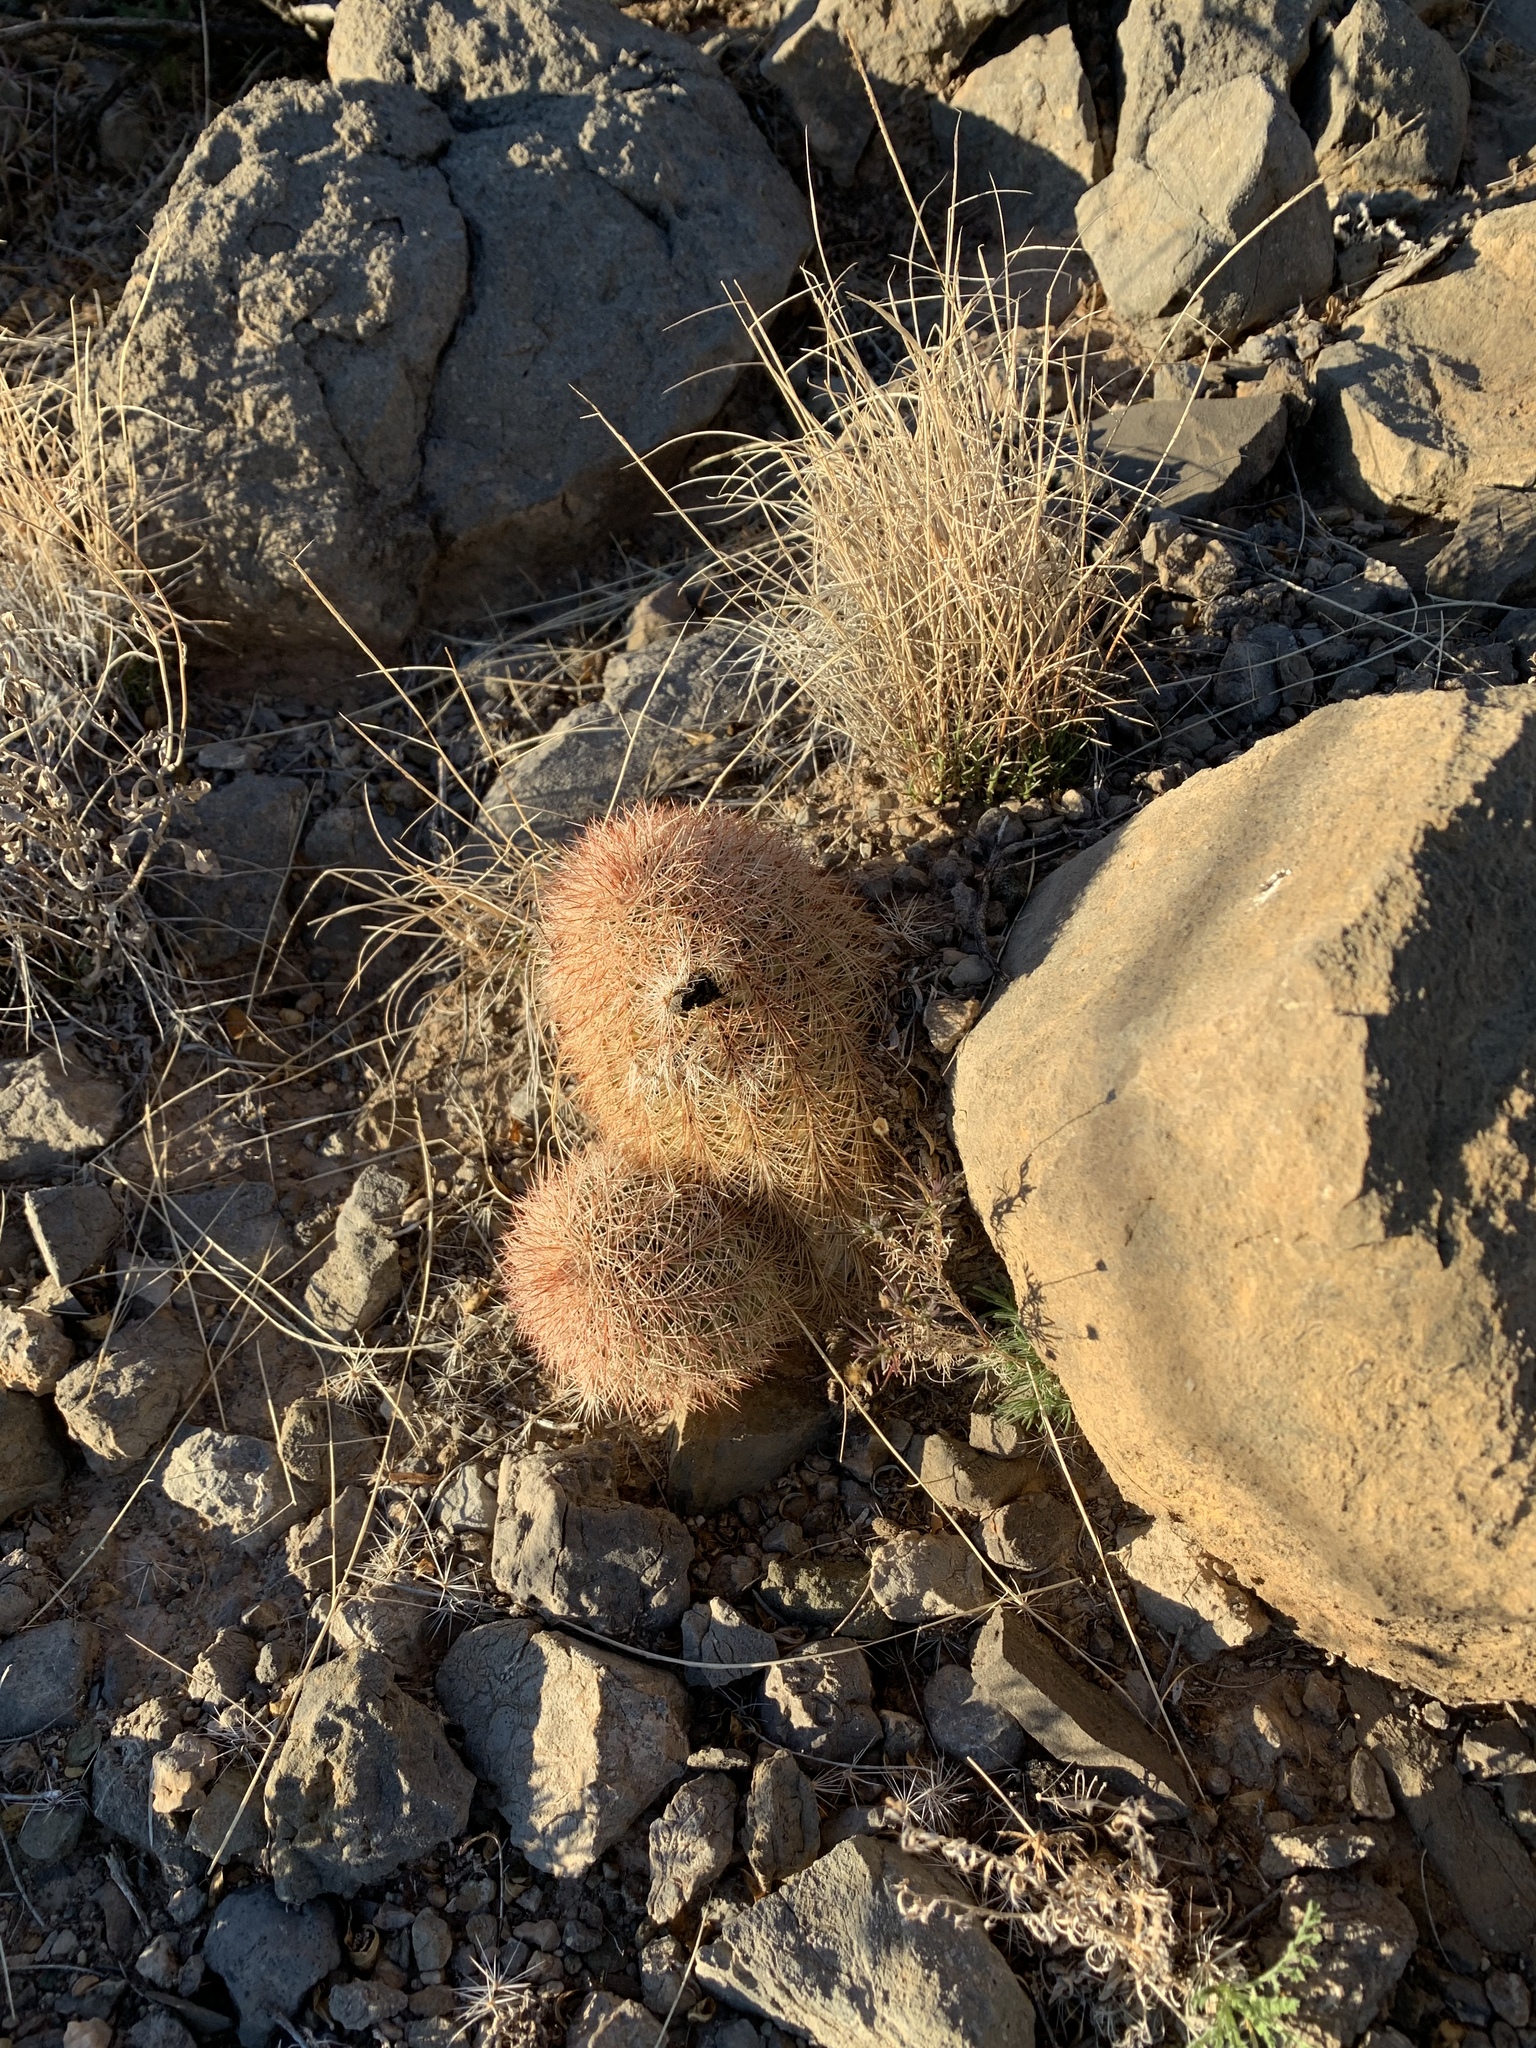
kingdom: Plantae
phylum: Tracheophyta
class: Magnoliopsida
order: Caryophyllales
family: Cactaceae
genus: Echinocereus
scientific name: Echinocereus dasyacanthus
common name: Spiny hedgehog cactus
